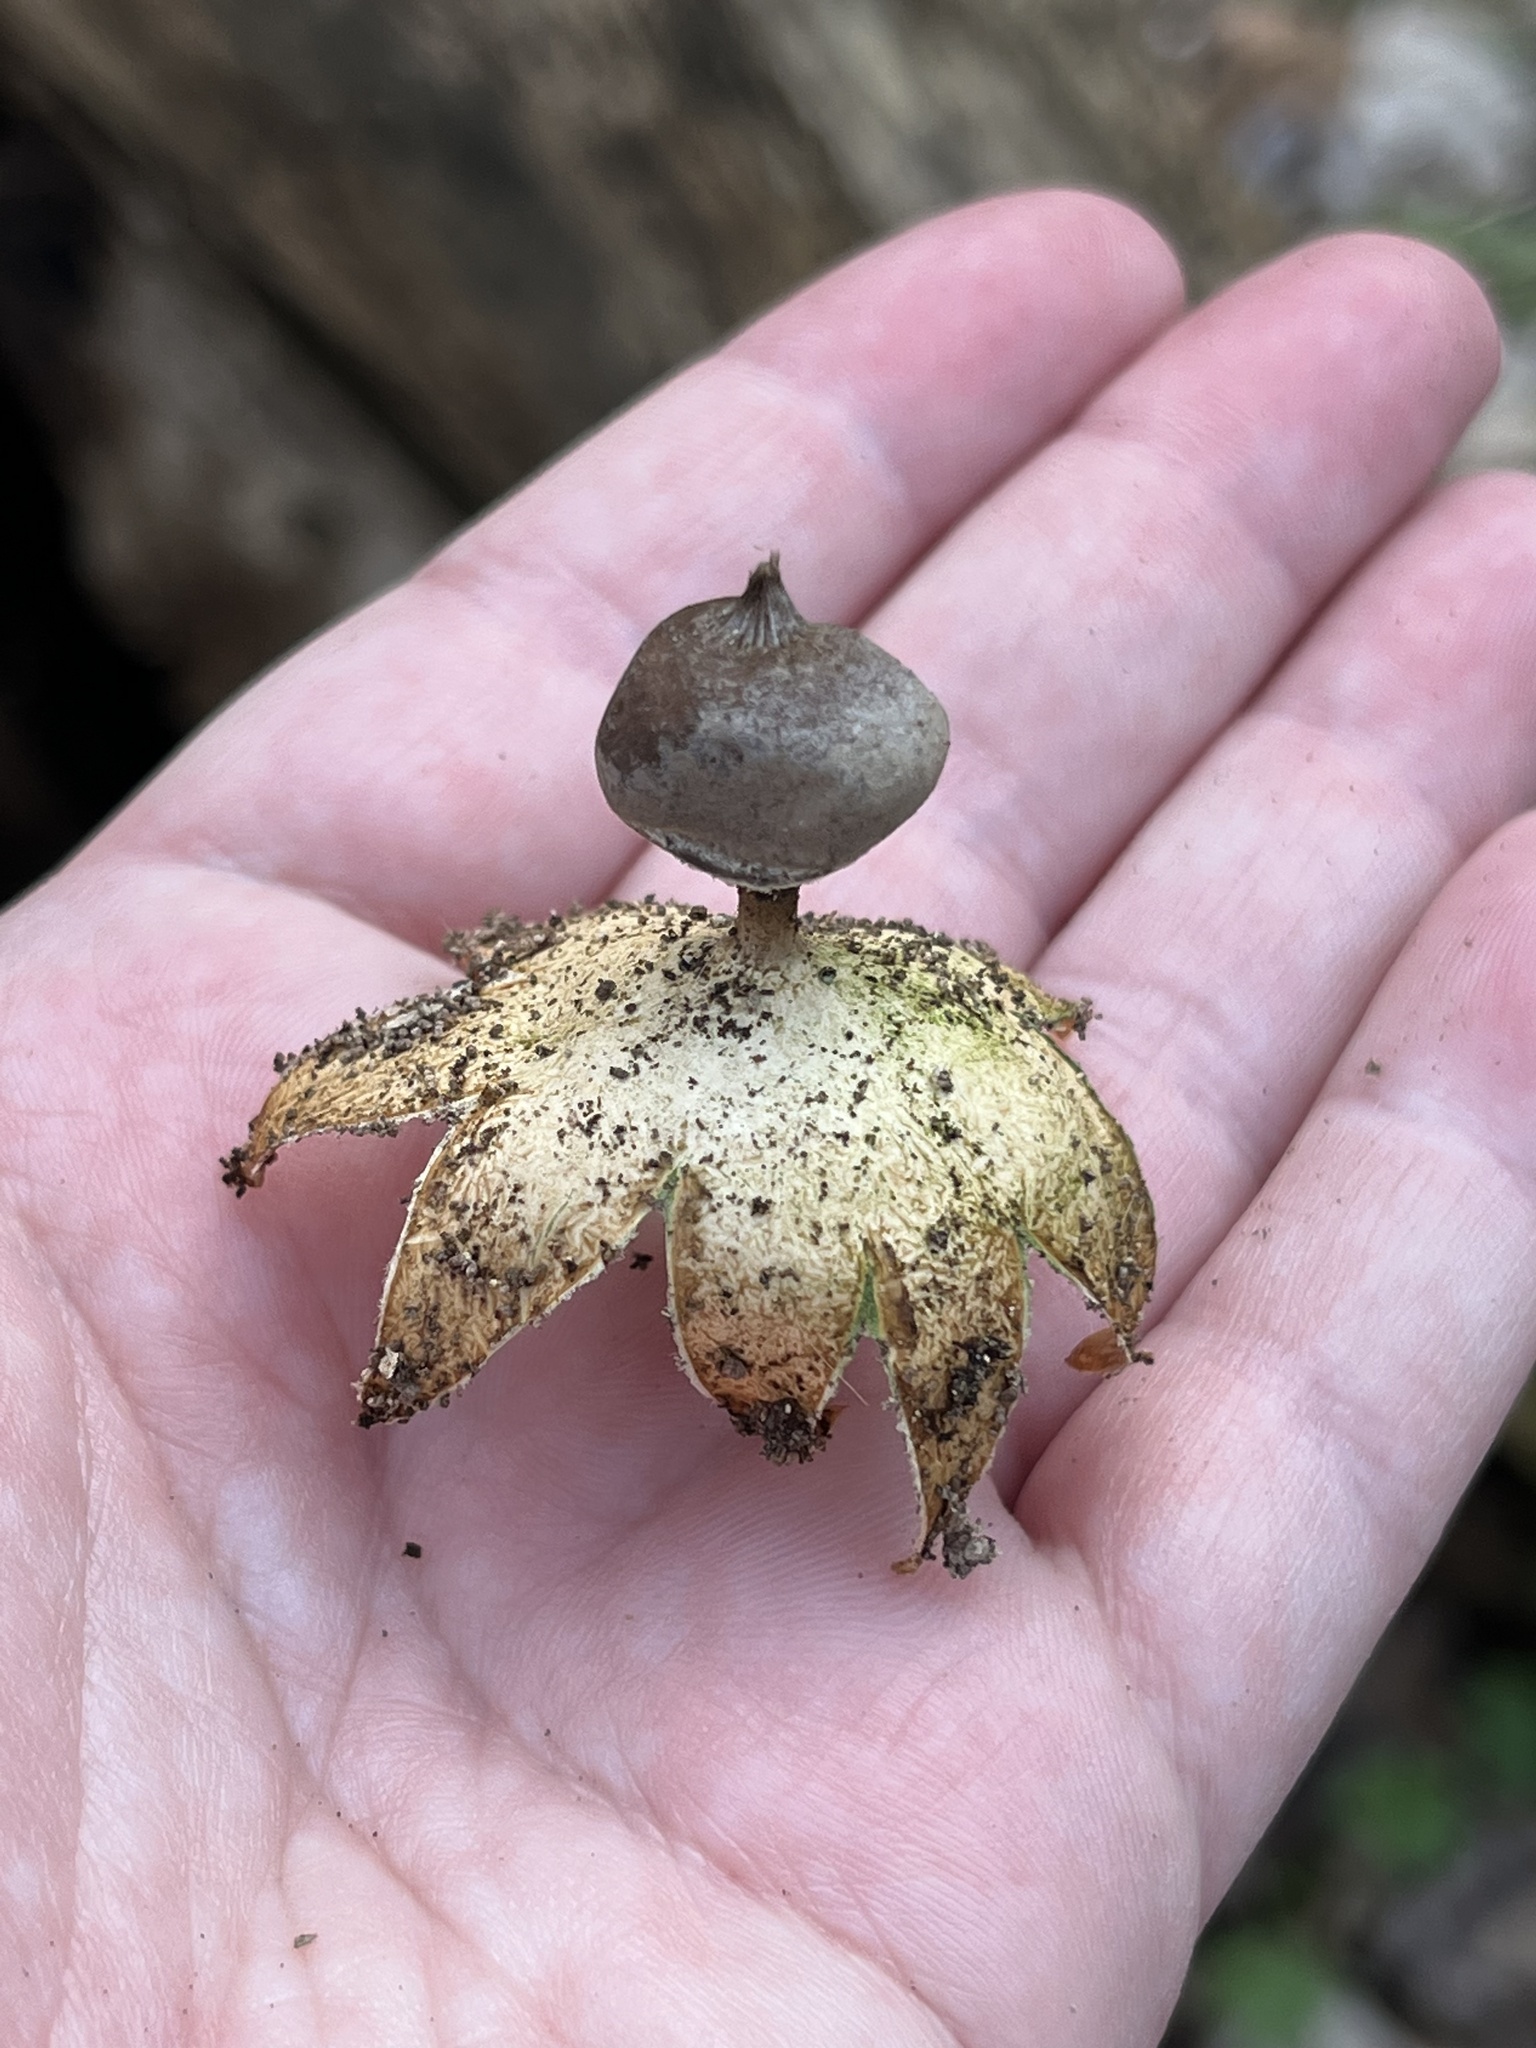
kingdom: Fungi
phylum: Basidiomycota
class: Agaricomycetes
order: Geastrales
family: Geastraceae
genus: Geastrum
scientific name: Geastrum pectinatum
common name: Beaked earthstar
